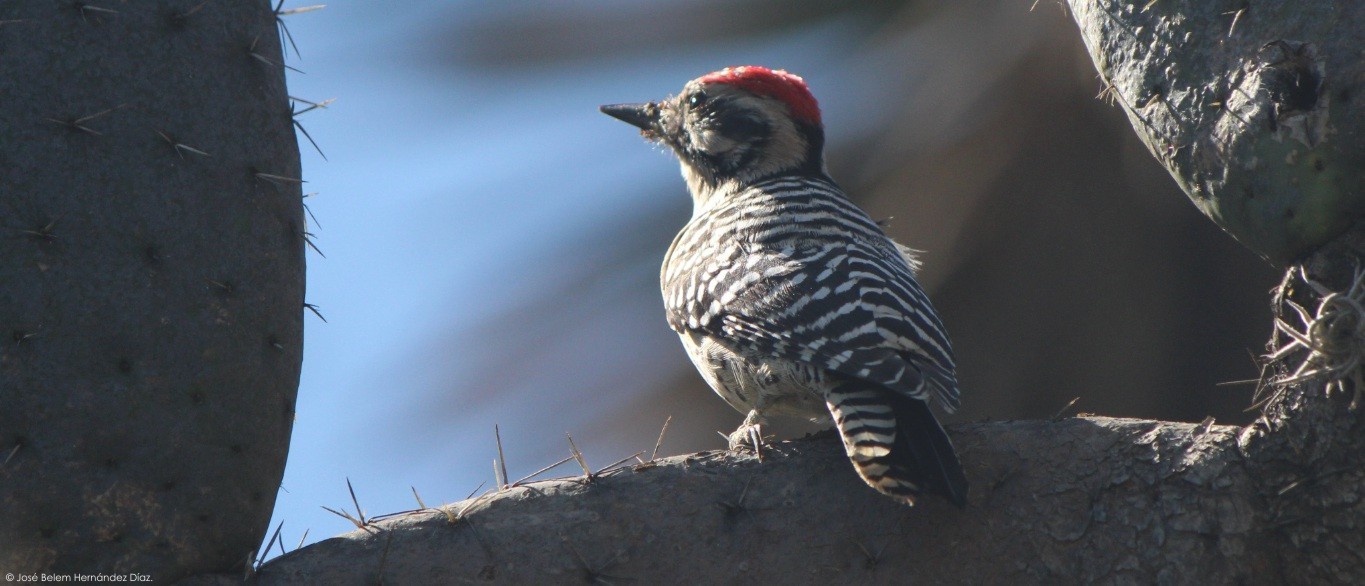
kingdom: Animalia
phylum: Chordata
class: Aves
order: Piciformes
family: Picidae
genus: Dryobates
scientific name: Dryobates scalaris
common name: Ladder-backed woodpecker
